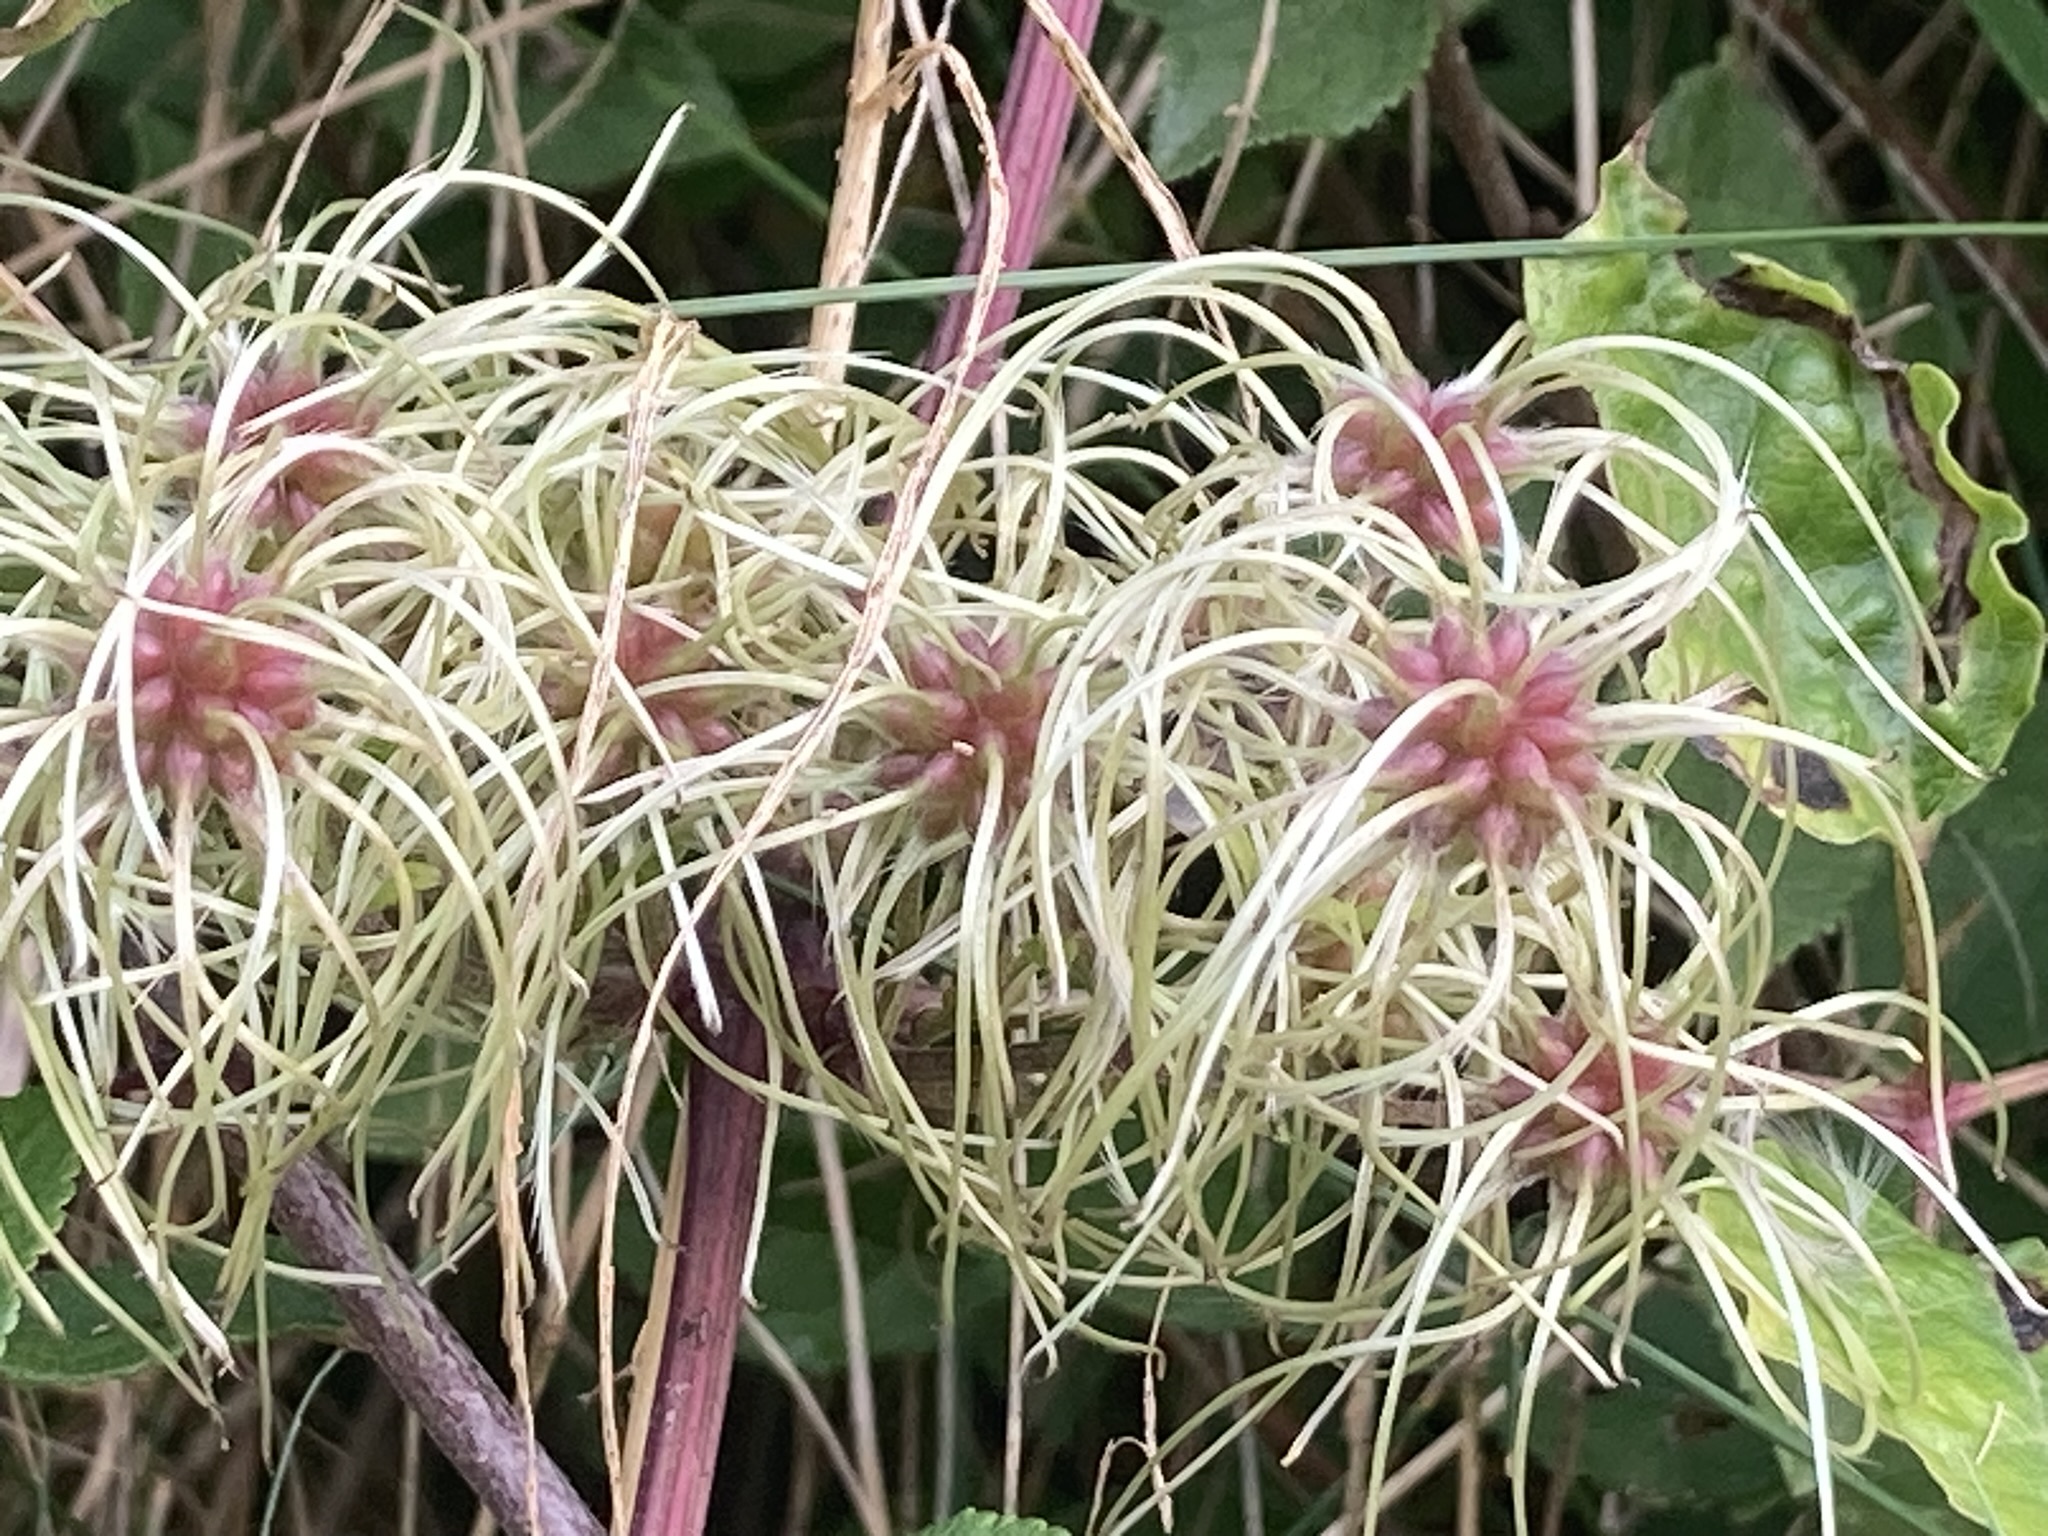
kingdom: Plantae
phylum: Tracheophyta
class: Magnoliopsida
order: Ranunculales
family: Ranunculaceae
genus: Clematis
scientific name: Clematis vitalba
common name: Evergreen clematis
